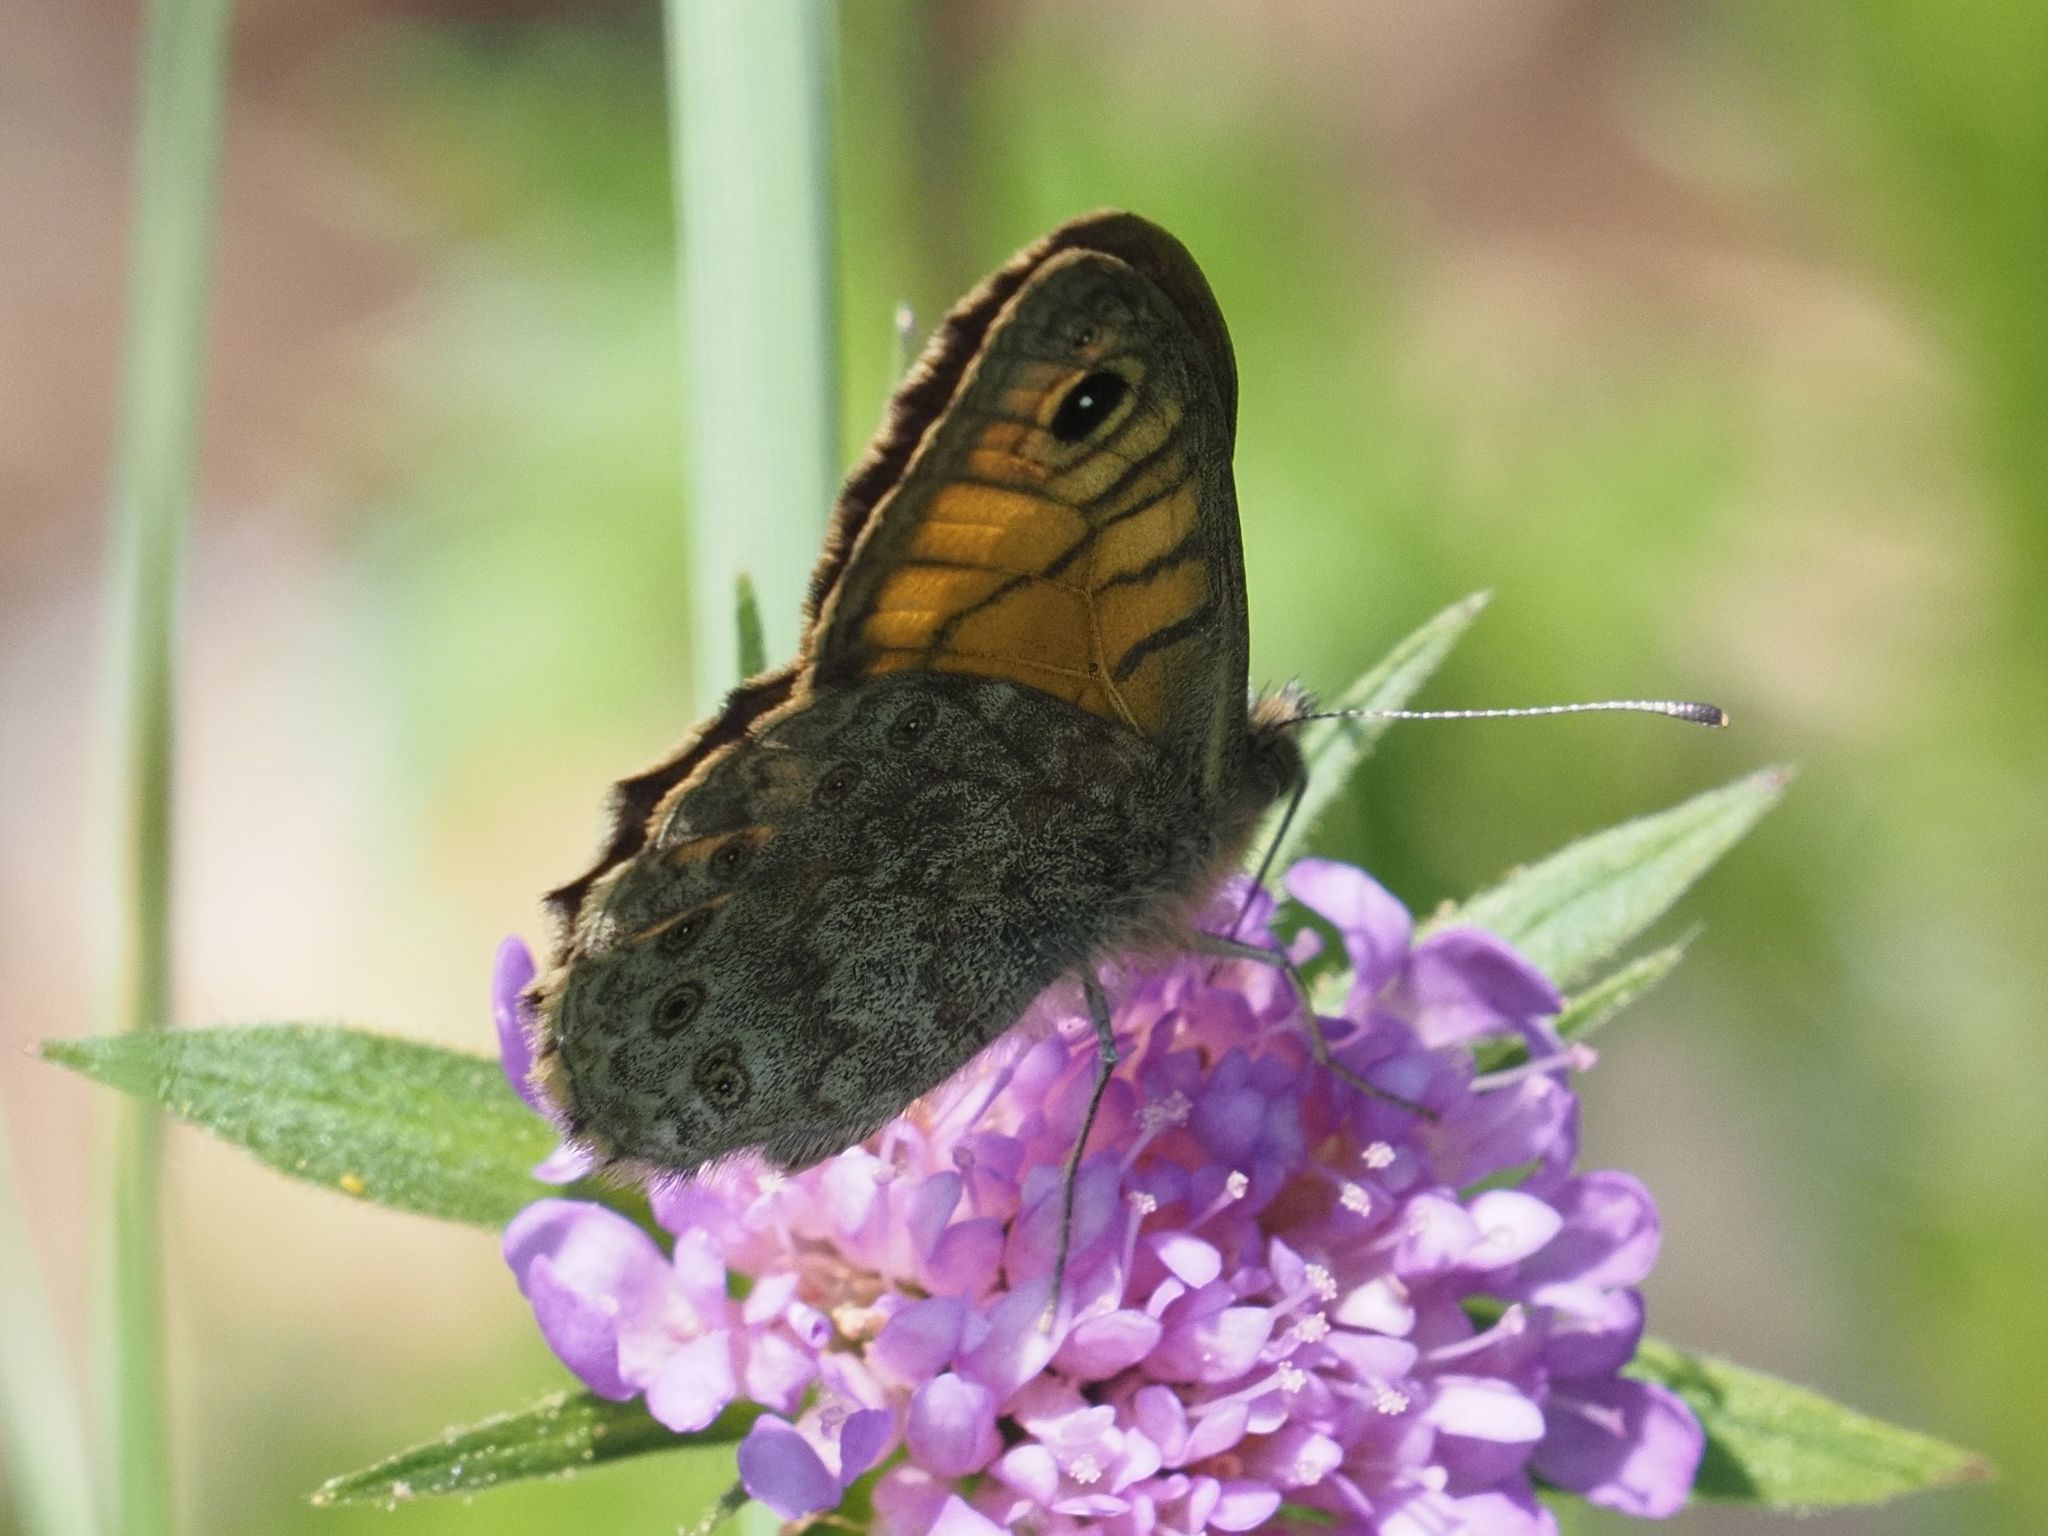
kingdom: Animalia
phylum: Arthropoda
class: Insecta
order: Lepidoptera
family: Nymphalidae
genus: Pararge
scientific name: Pararge Lasiommata megera
